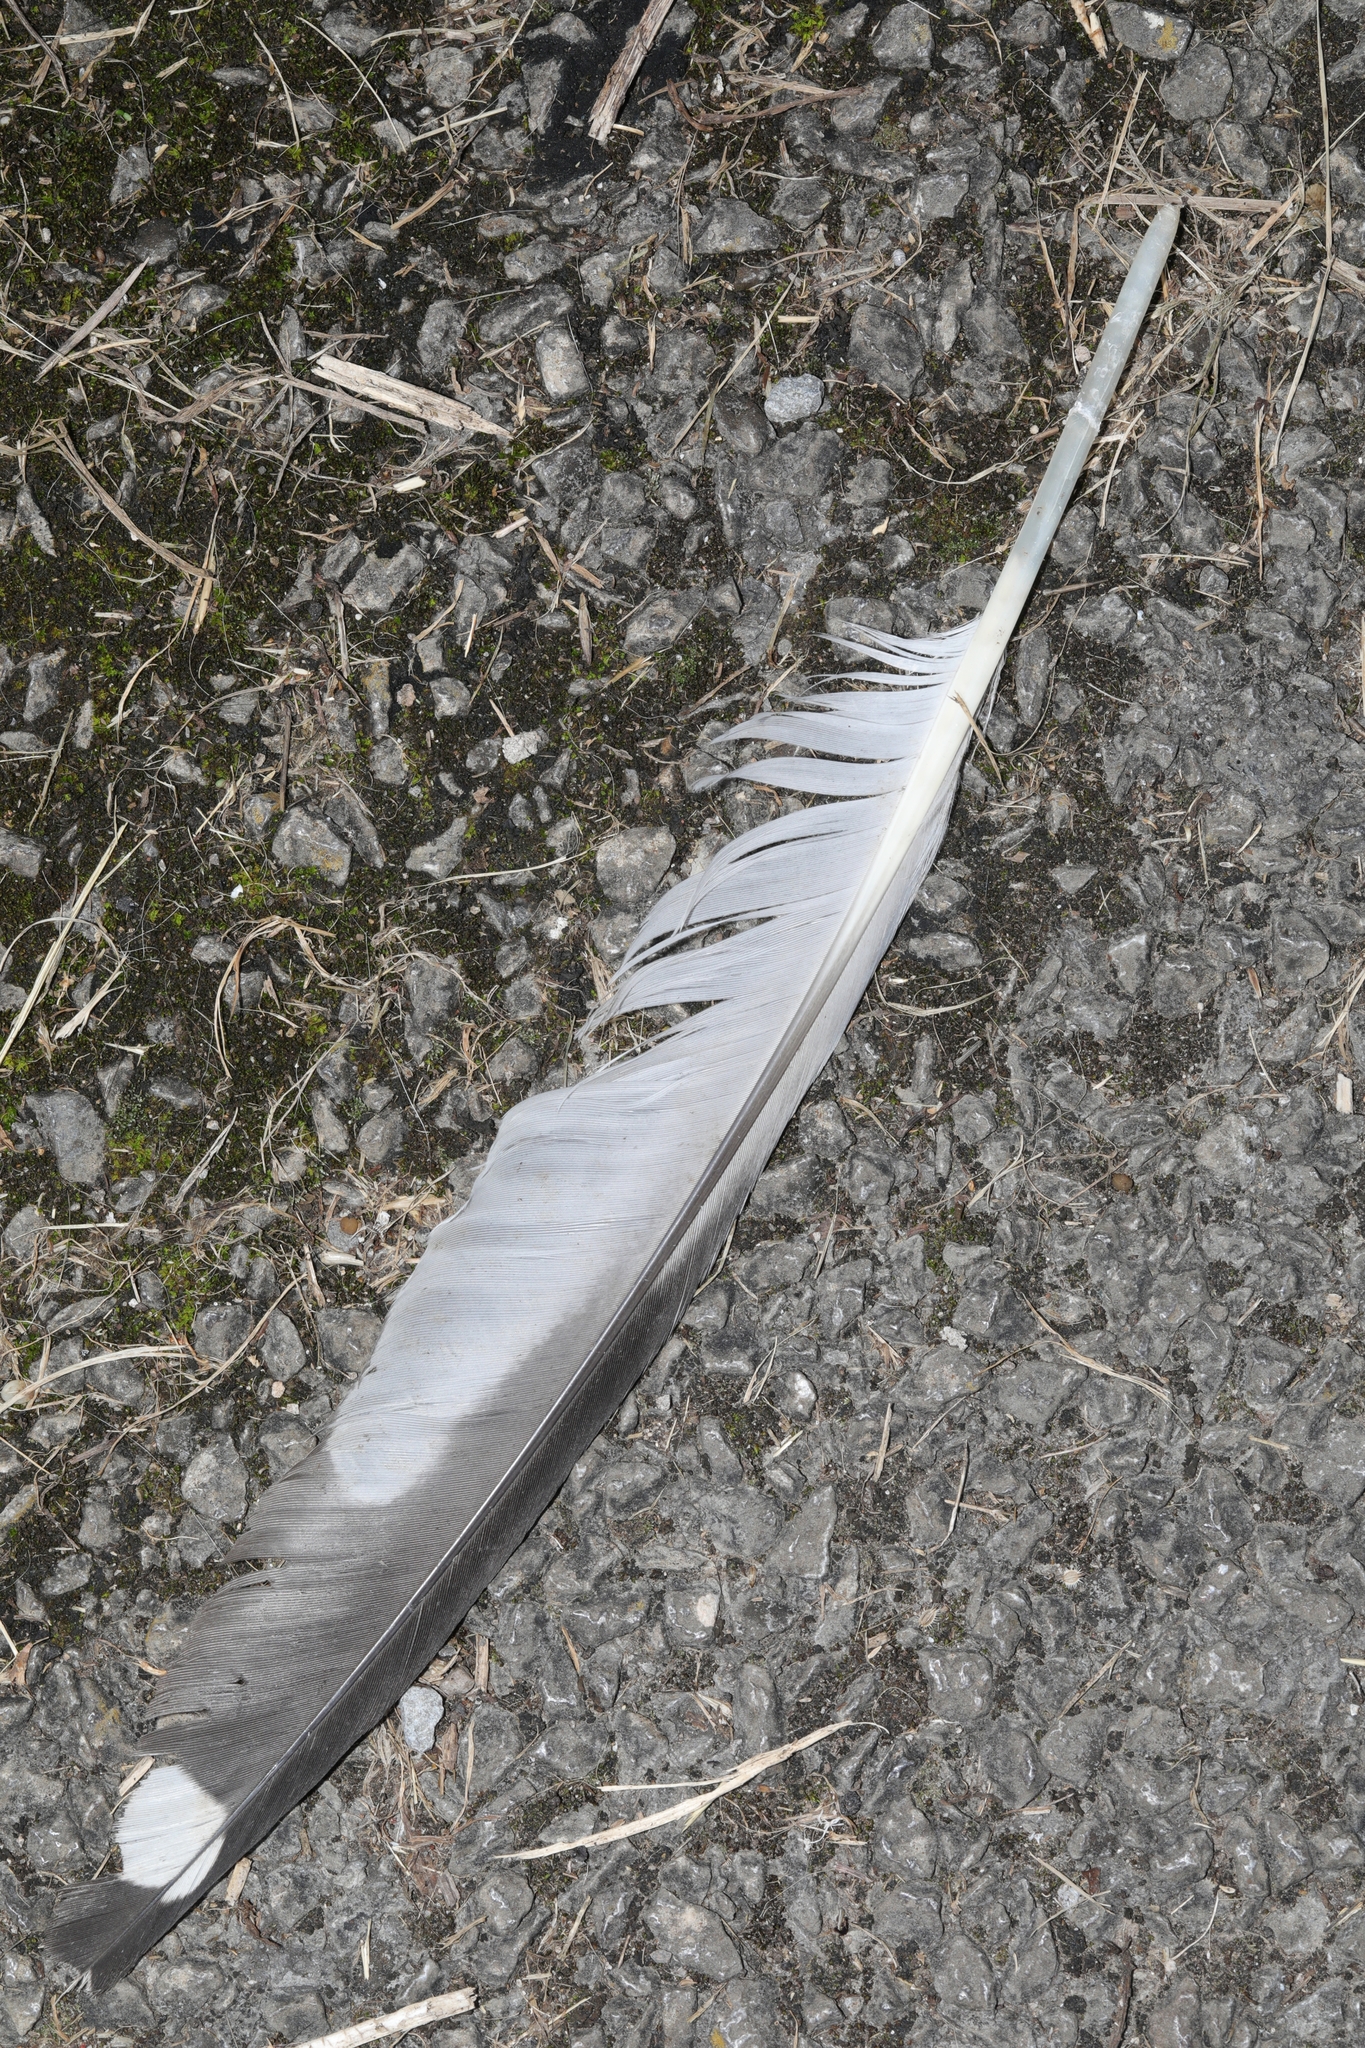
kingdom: Animalia
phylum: Chordata
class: Aves
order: Charadriiformes
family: Laridae
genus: Larus
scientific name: Larus argentatus
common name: Herring gull
